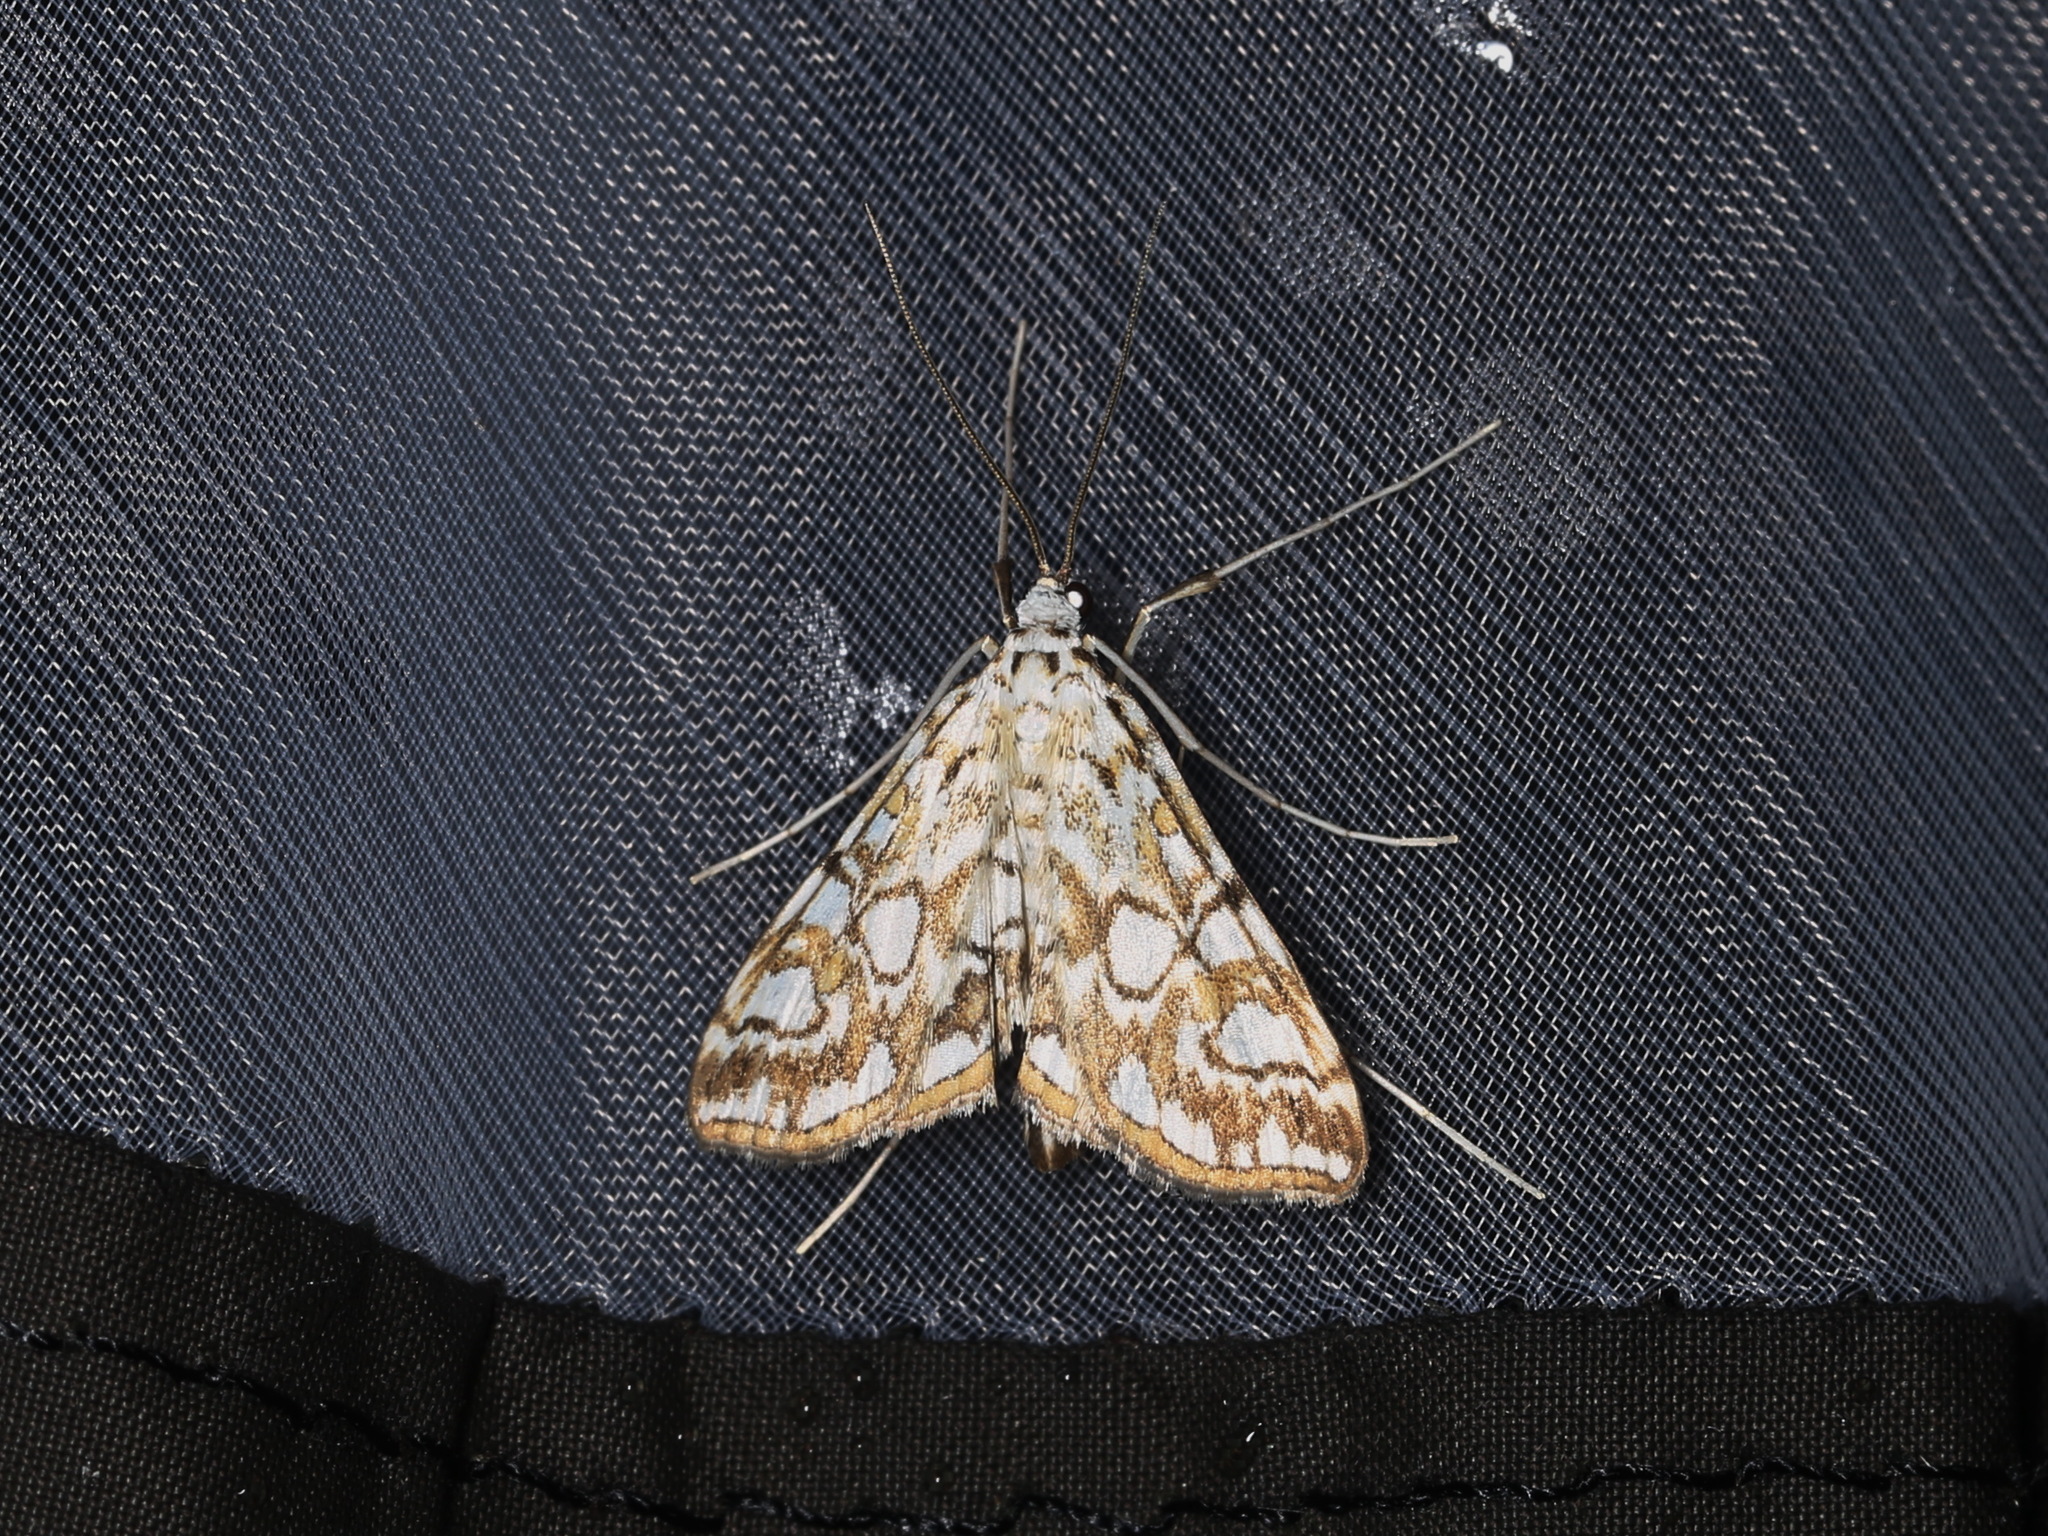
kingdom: Animalia
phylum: Arthropoda
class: Insecta
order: Lepidoptera
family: Crambidae
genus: Elophila
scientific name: Elophila nymphaeata
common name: Brown china-mark
